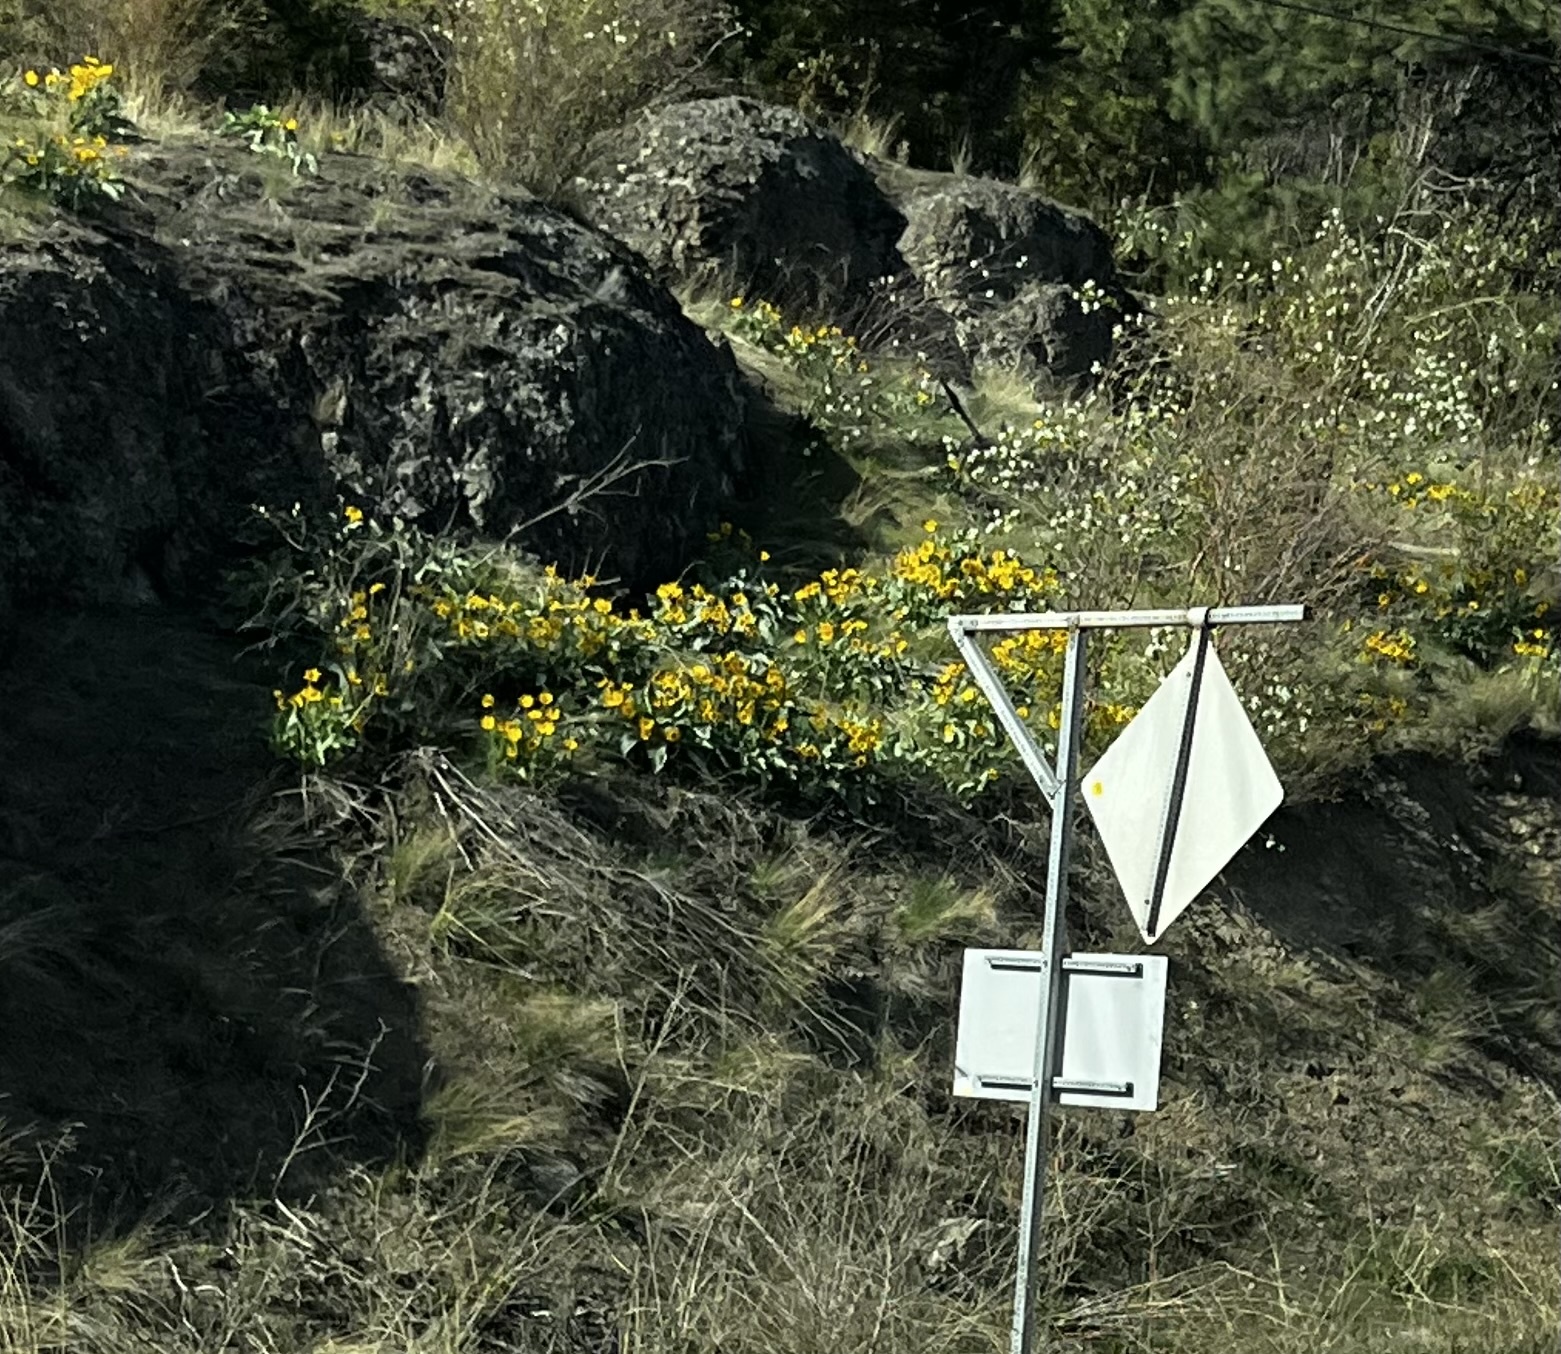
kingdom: Plantae
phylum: Tracheophyta
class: Magnoliopsida
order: Asterales
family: Asteraceae
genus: Wyethia
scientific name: Wyethia sagittata
